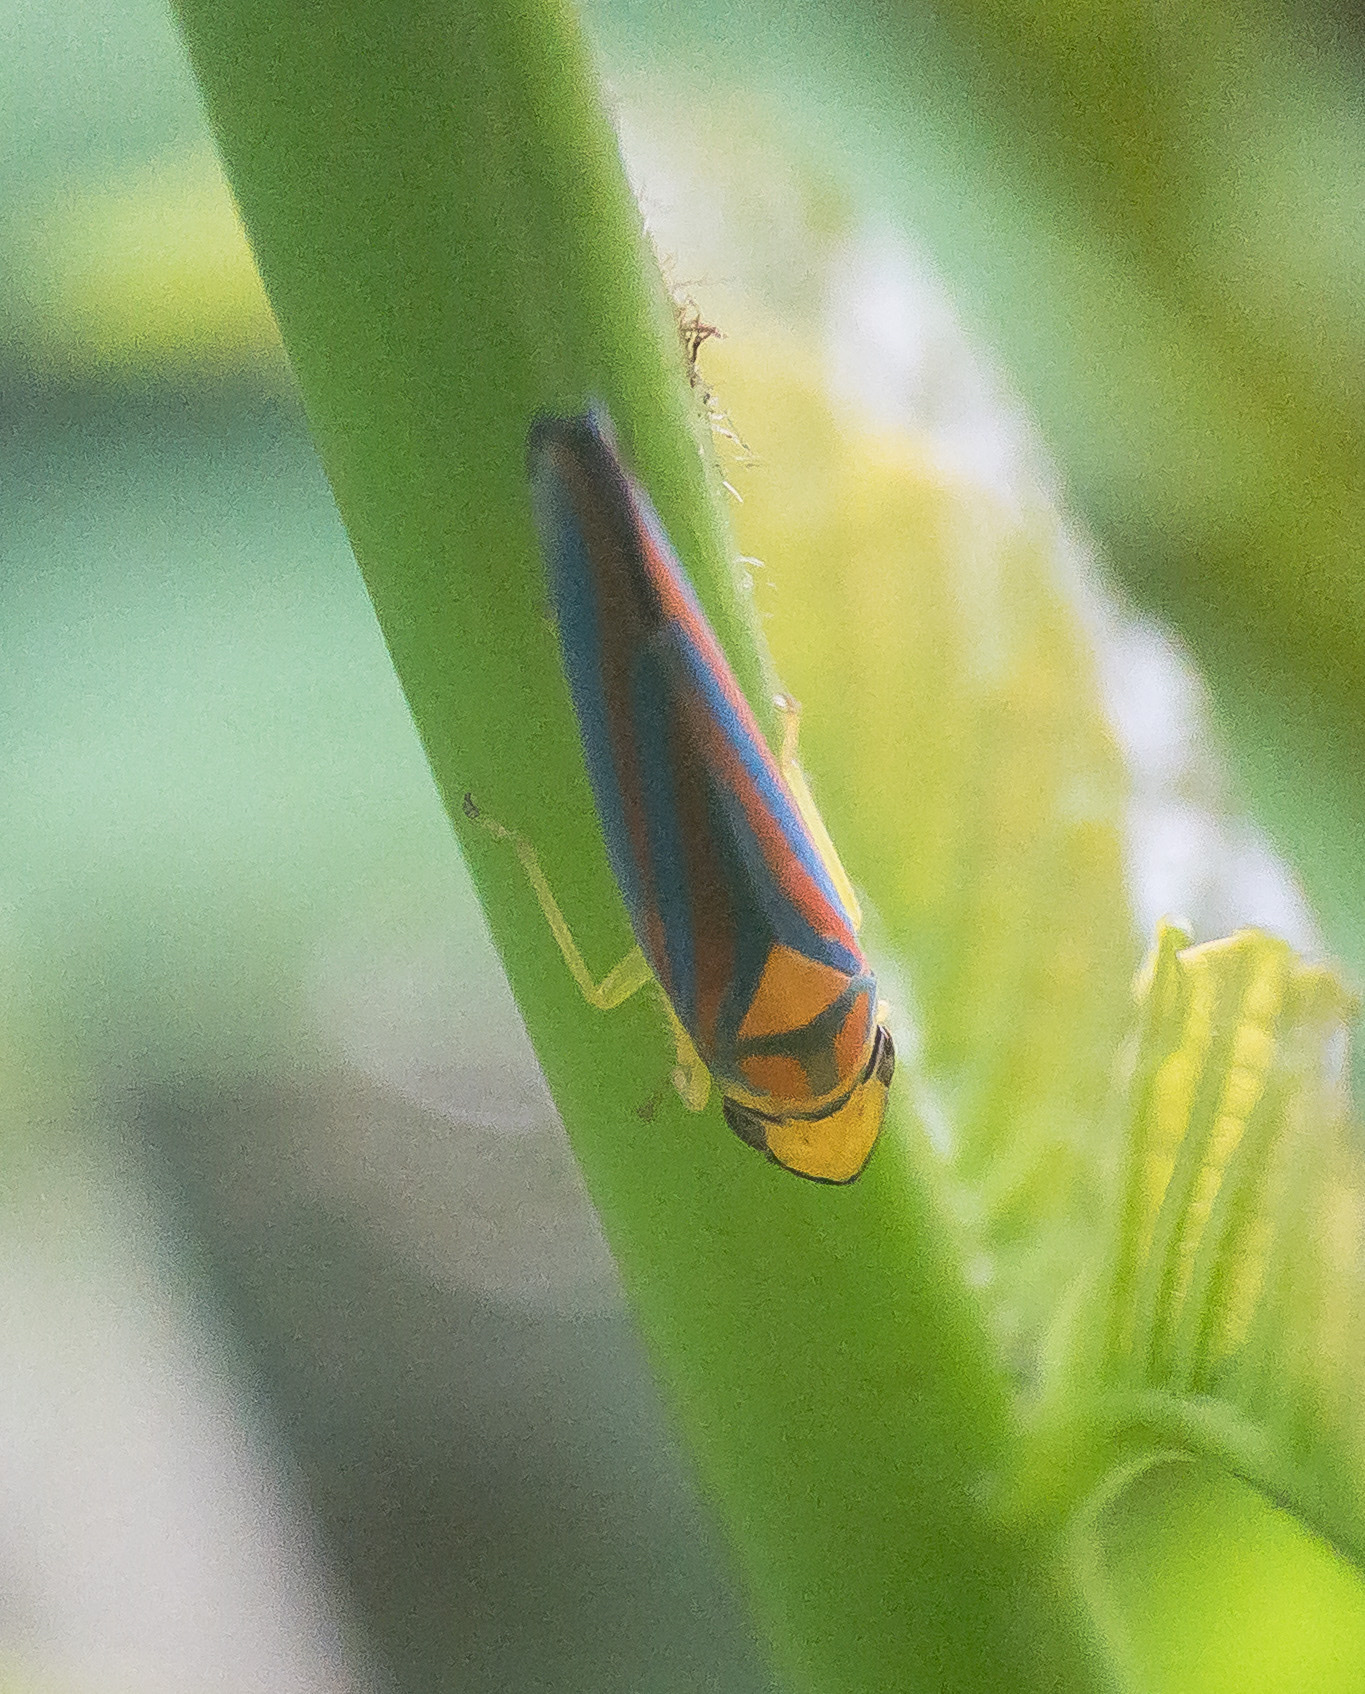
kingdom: Animalia
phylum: Arthropoda
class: Insecta
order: Hemiptera
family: Cicadellidae
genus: Graphocephala
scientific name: Graphocephala coccinea
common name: Candy-striped leafhopper
